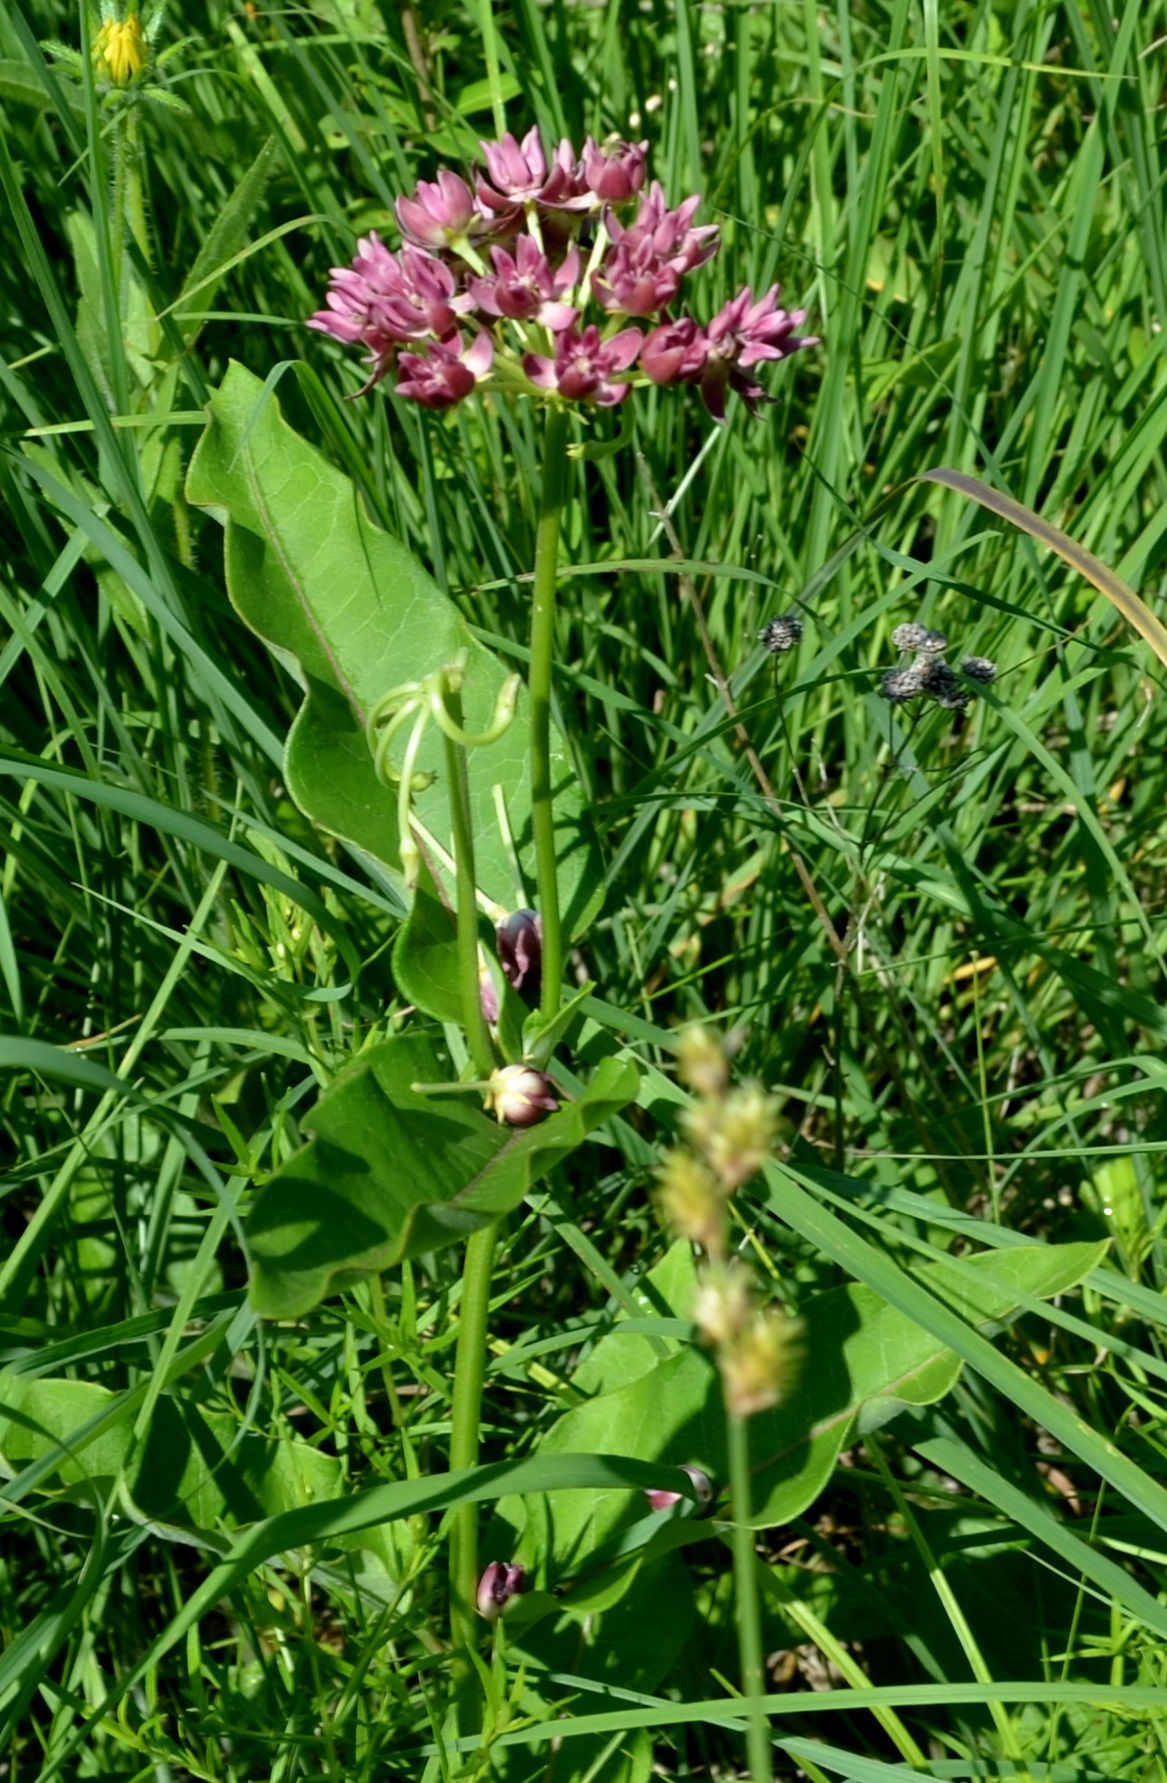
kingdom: Plantae
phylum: Tracheophyta
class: Magnoliopsida
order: Gentianales
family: Apocynaceae
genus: Asclepias
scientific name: Asclepias purpurascens
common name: Purple milkweed
